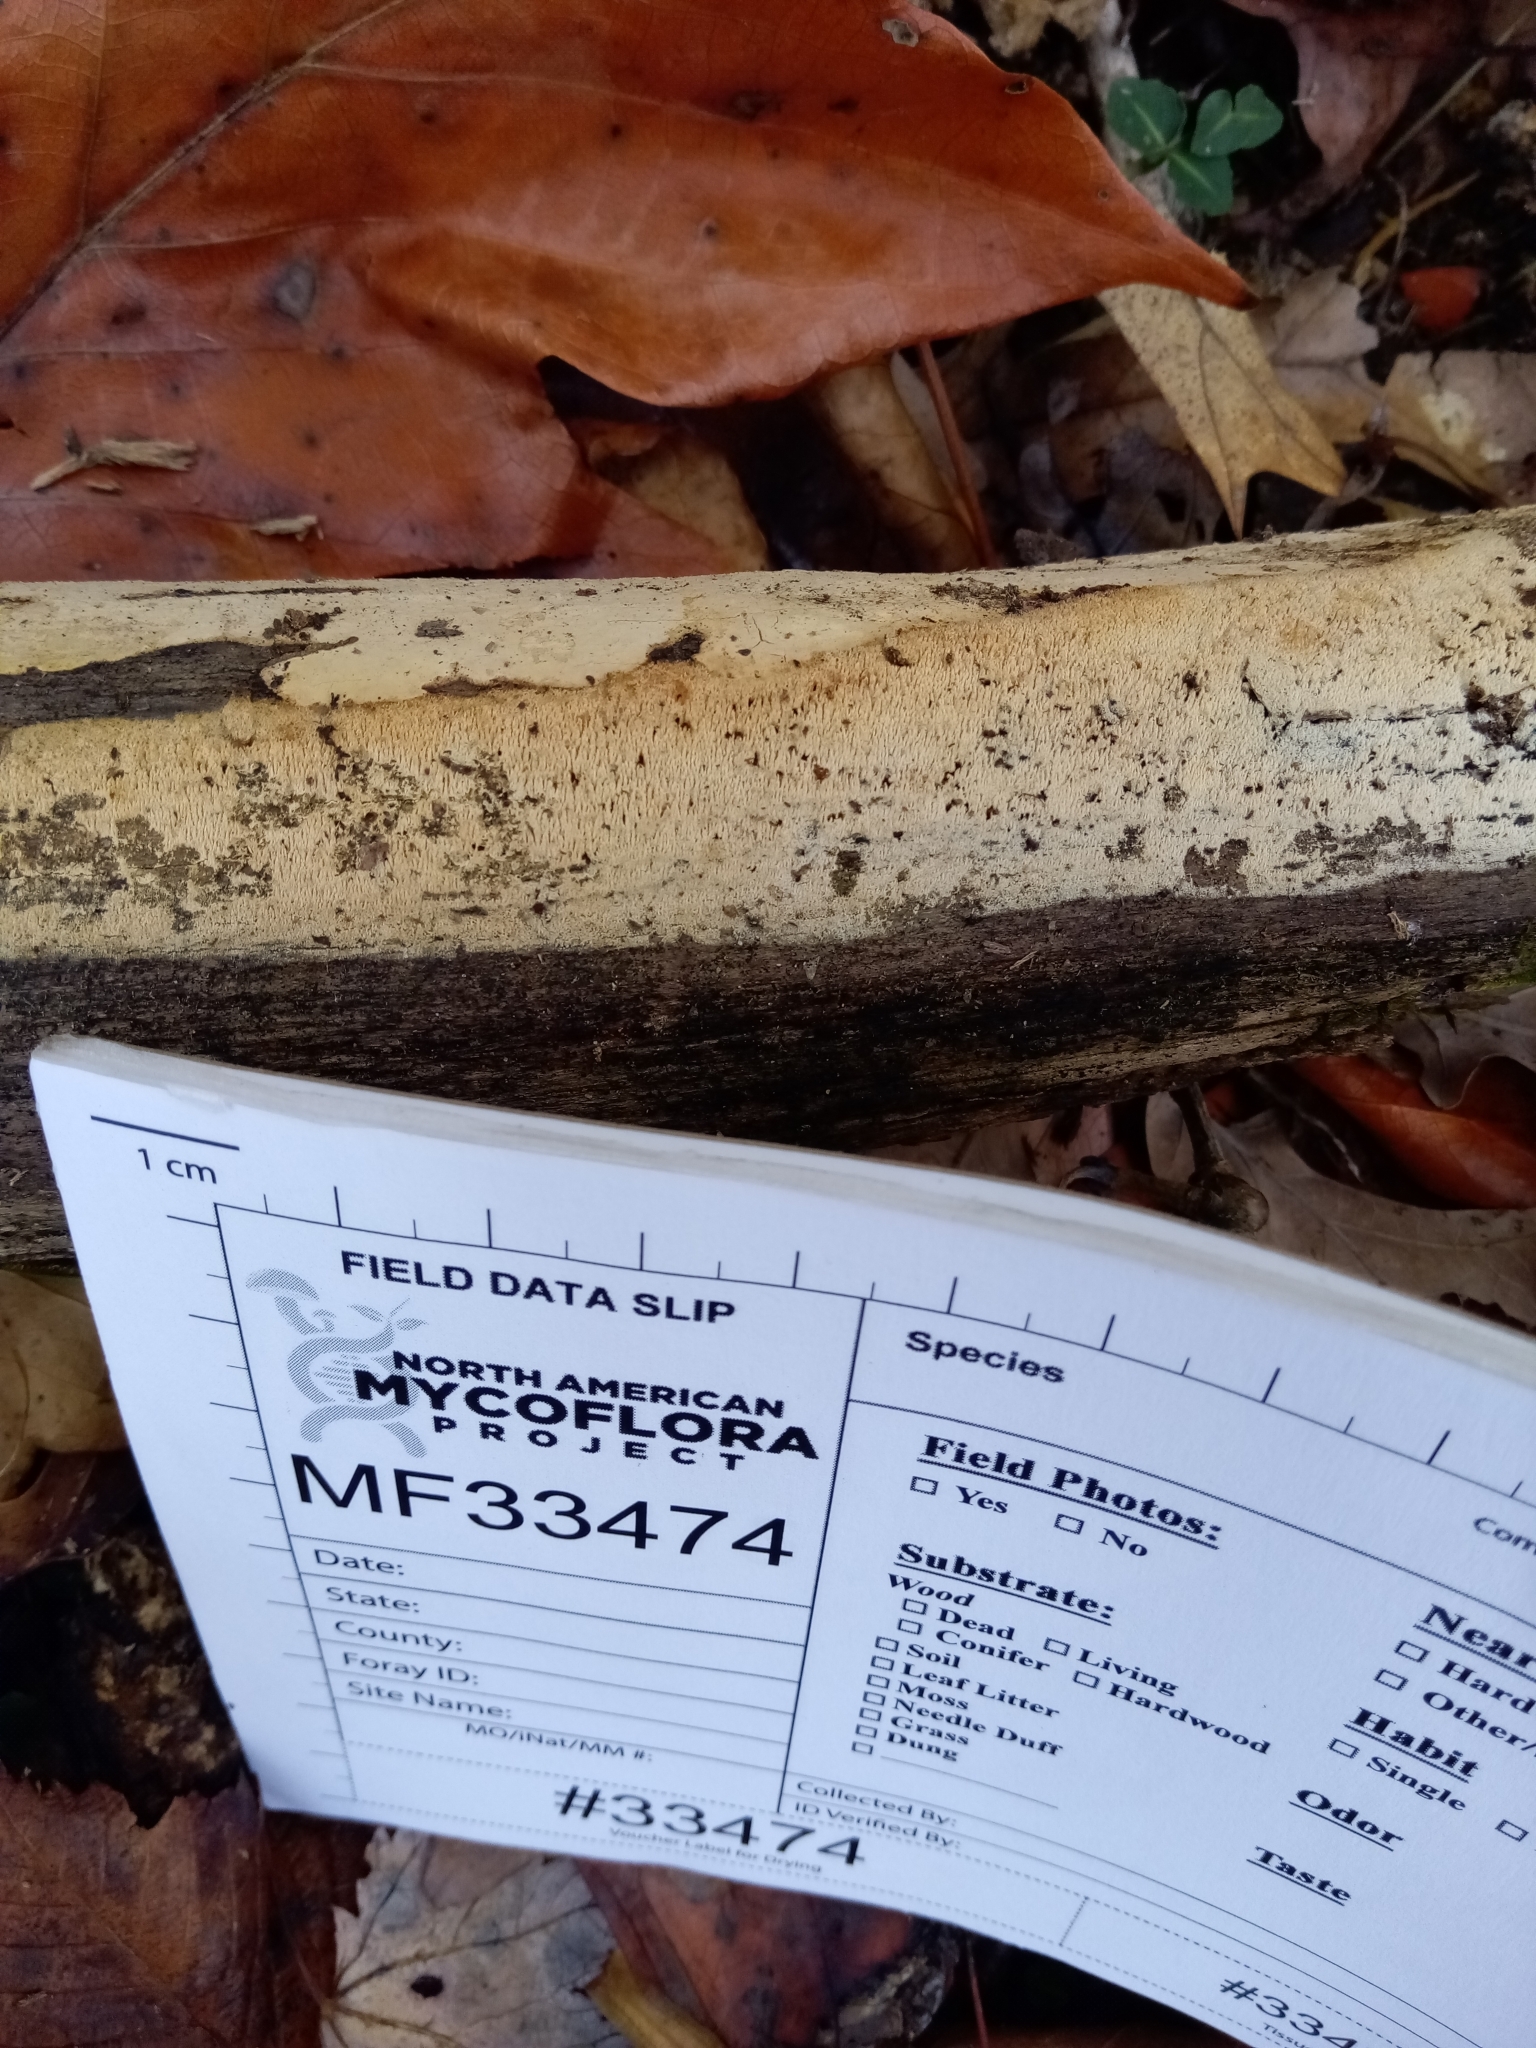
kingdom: Fungi
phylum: Basidiomycota
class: Agaricomycetes
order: Hymenochaetales
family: Hyphodontiaceae
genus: Hyphodontia
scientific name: Hyphodontia arguta
